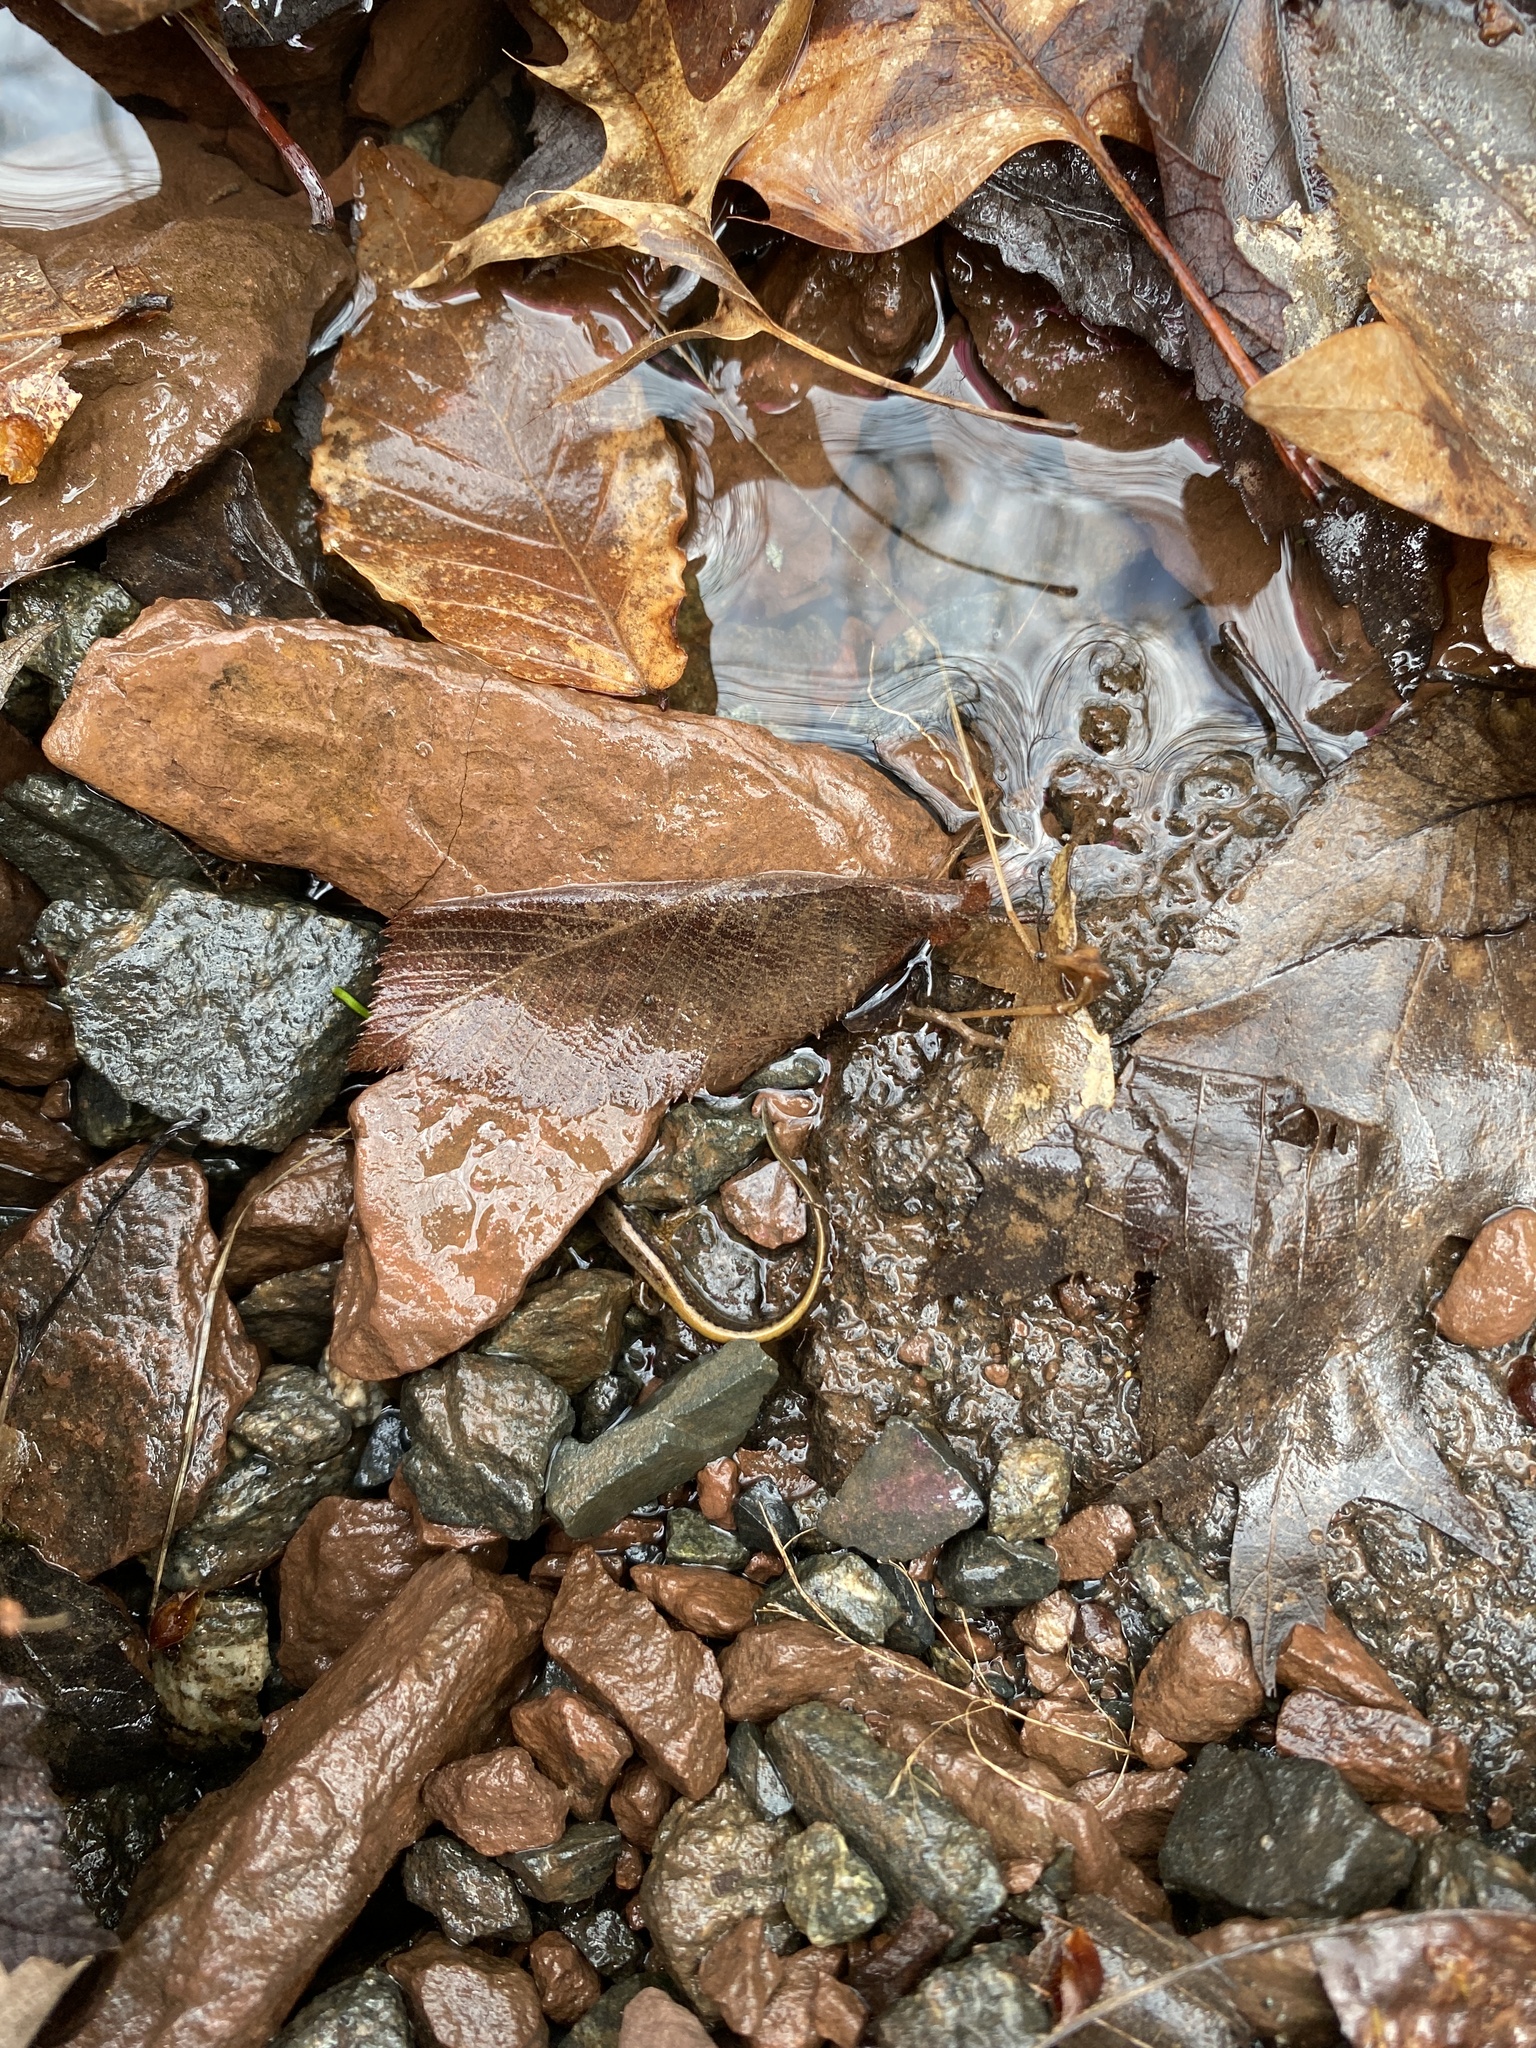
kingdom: Animalia
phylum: Chordata
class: Amphibia
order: Caudata
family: Plethodontidae
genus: Eurycea
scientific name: Eurycea bislineata
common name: Northern two-lined salamander
